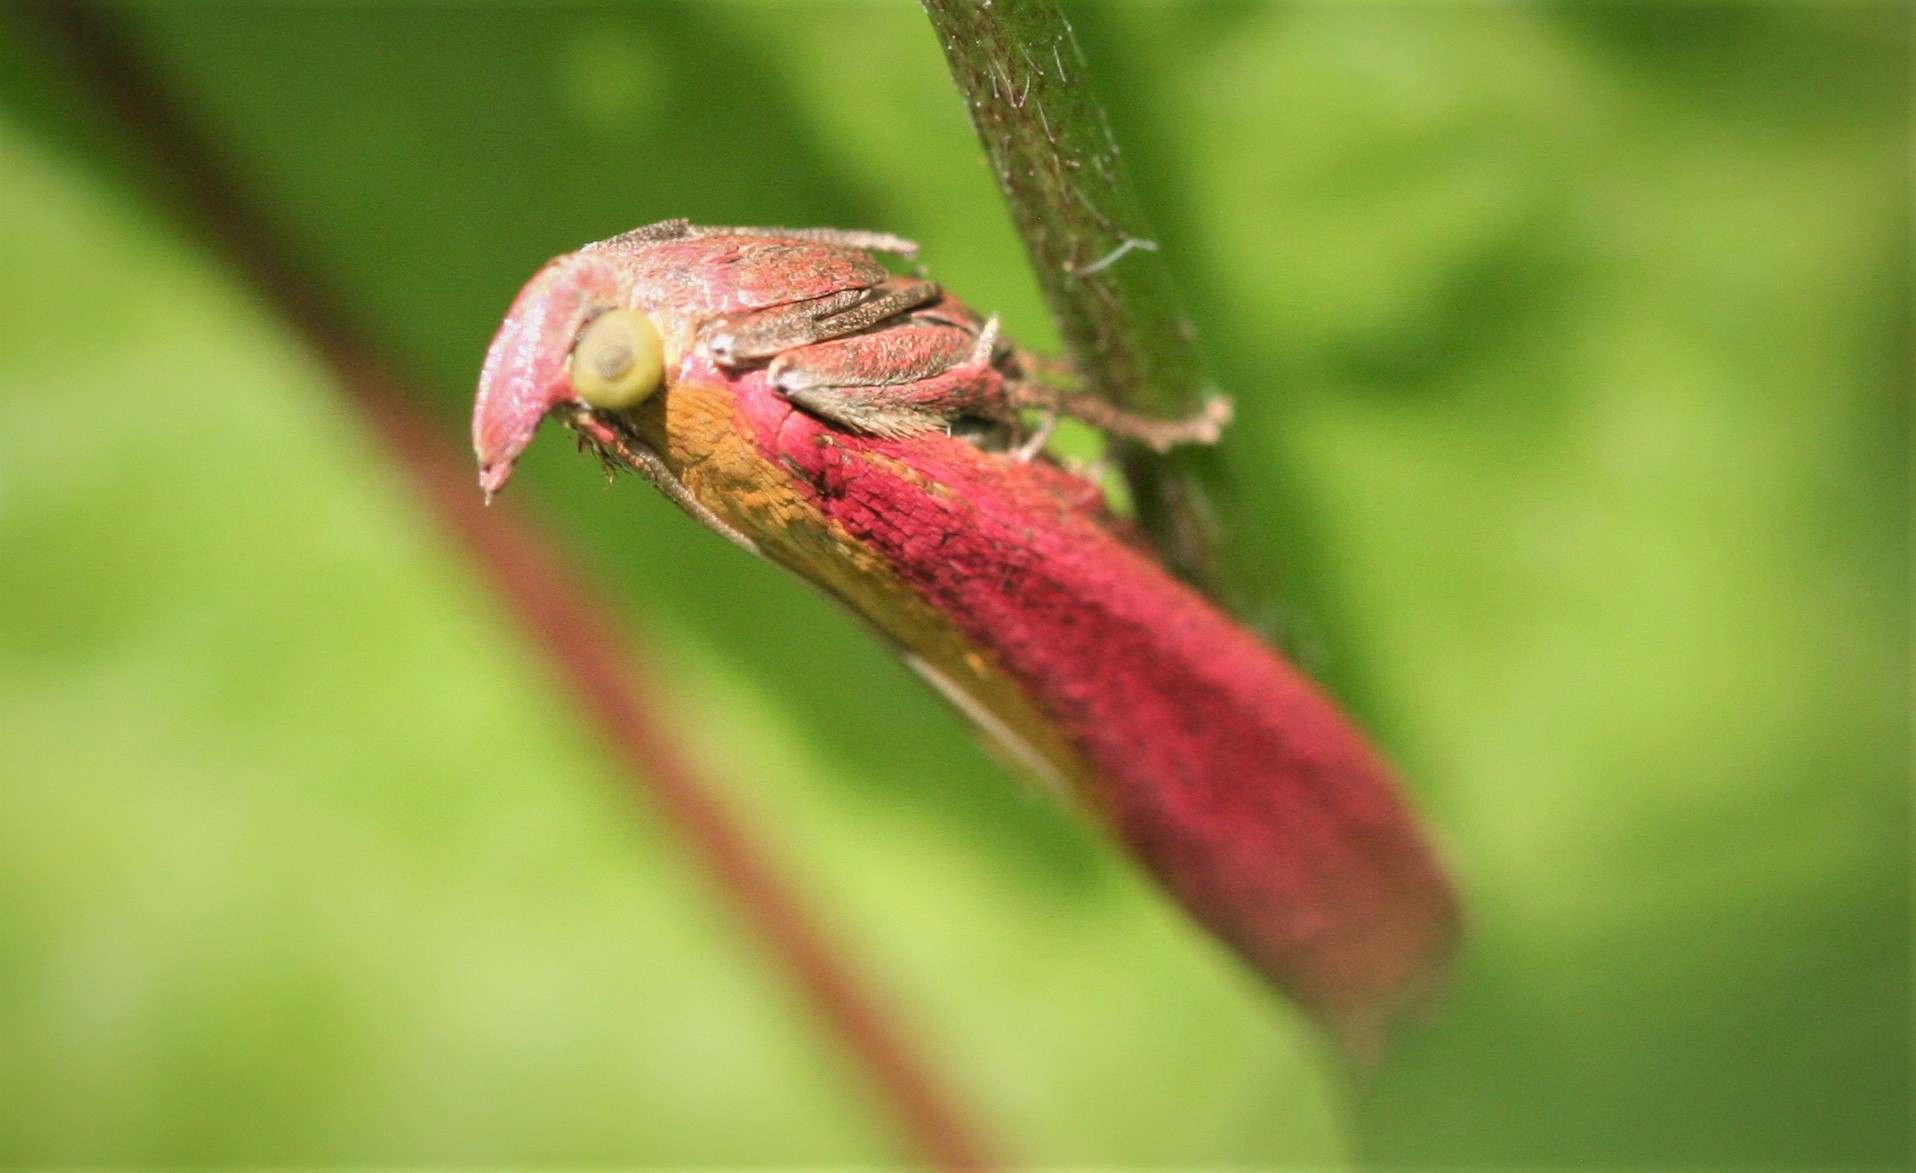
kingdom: Animalia
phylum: Arthropoda
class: Insecta
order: Lepidoptera
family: Pyralidae
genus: Oncocera
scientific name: Oncocera semirubella
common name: Rosy-striped knot-horn
